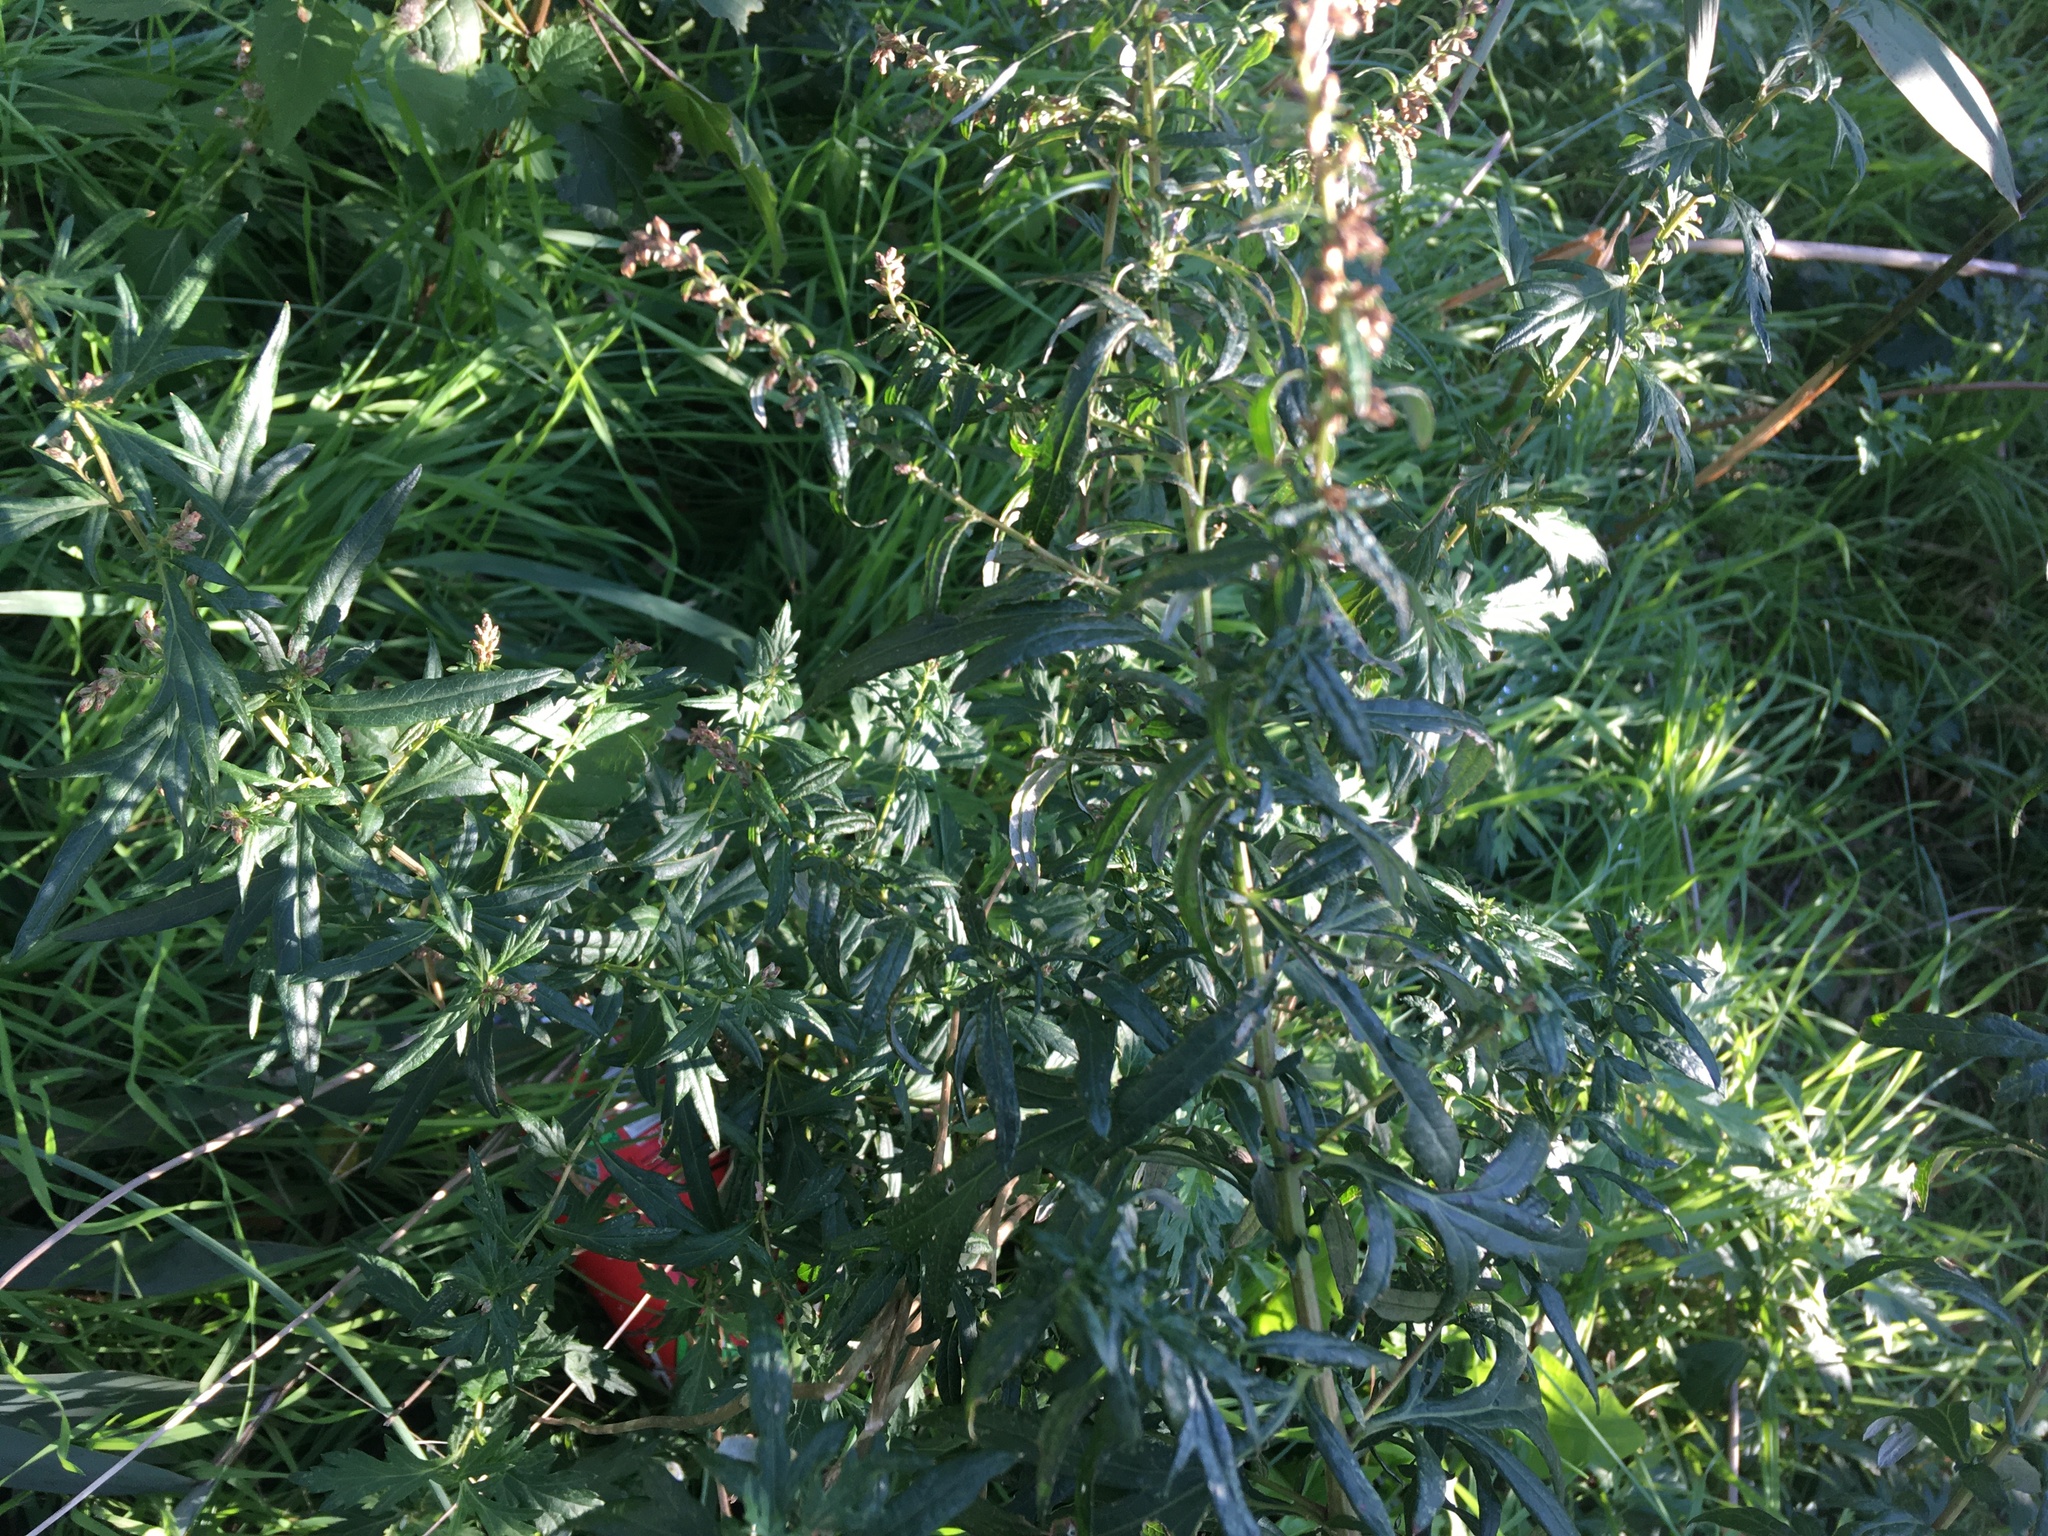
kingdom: Plantae
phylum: Tracheophyta
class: Magnoliopsida
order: Asterales
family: Asteraceae
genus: Artemisia
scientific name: Artemisia vulgaris
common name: Mugwort
